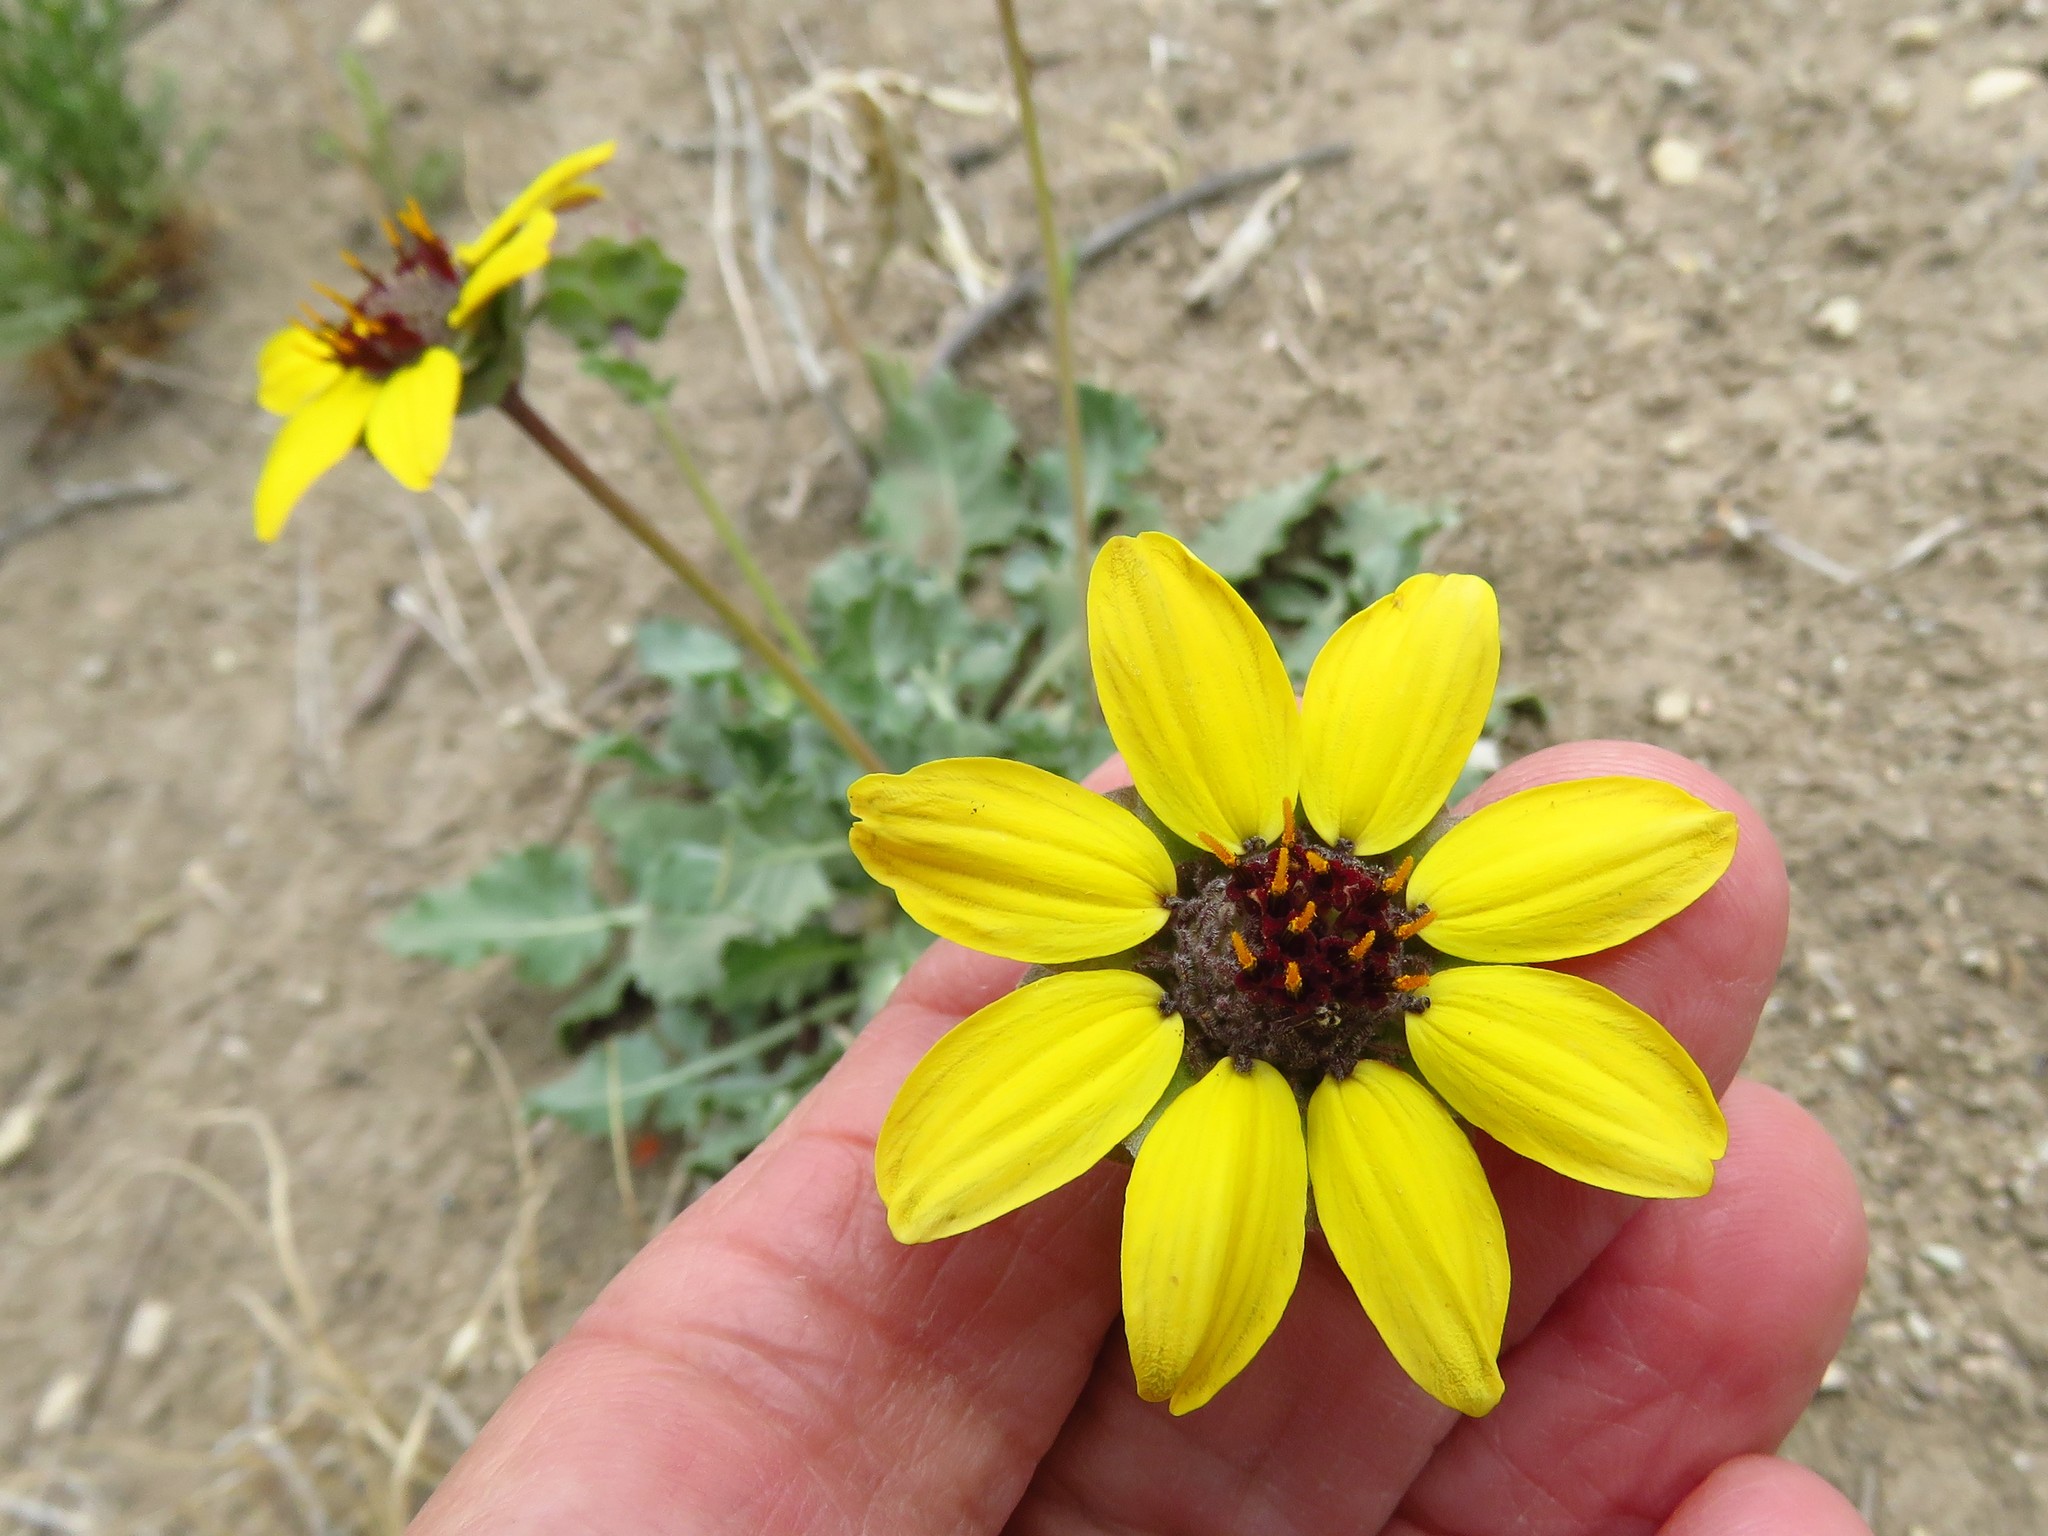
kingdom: Plantae
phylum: Tracheophyta
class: Magnoliopsida
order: Asterales
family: Asteraceae
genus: Berlandiera
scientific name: Berlandiera lyrata
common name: Chocolate-flower
